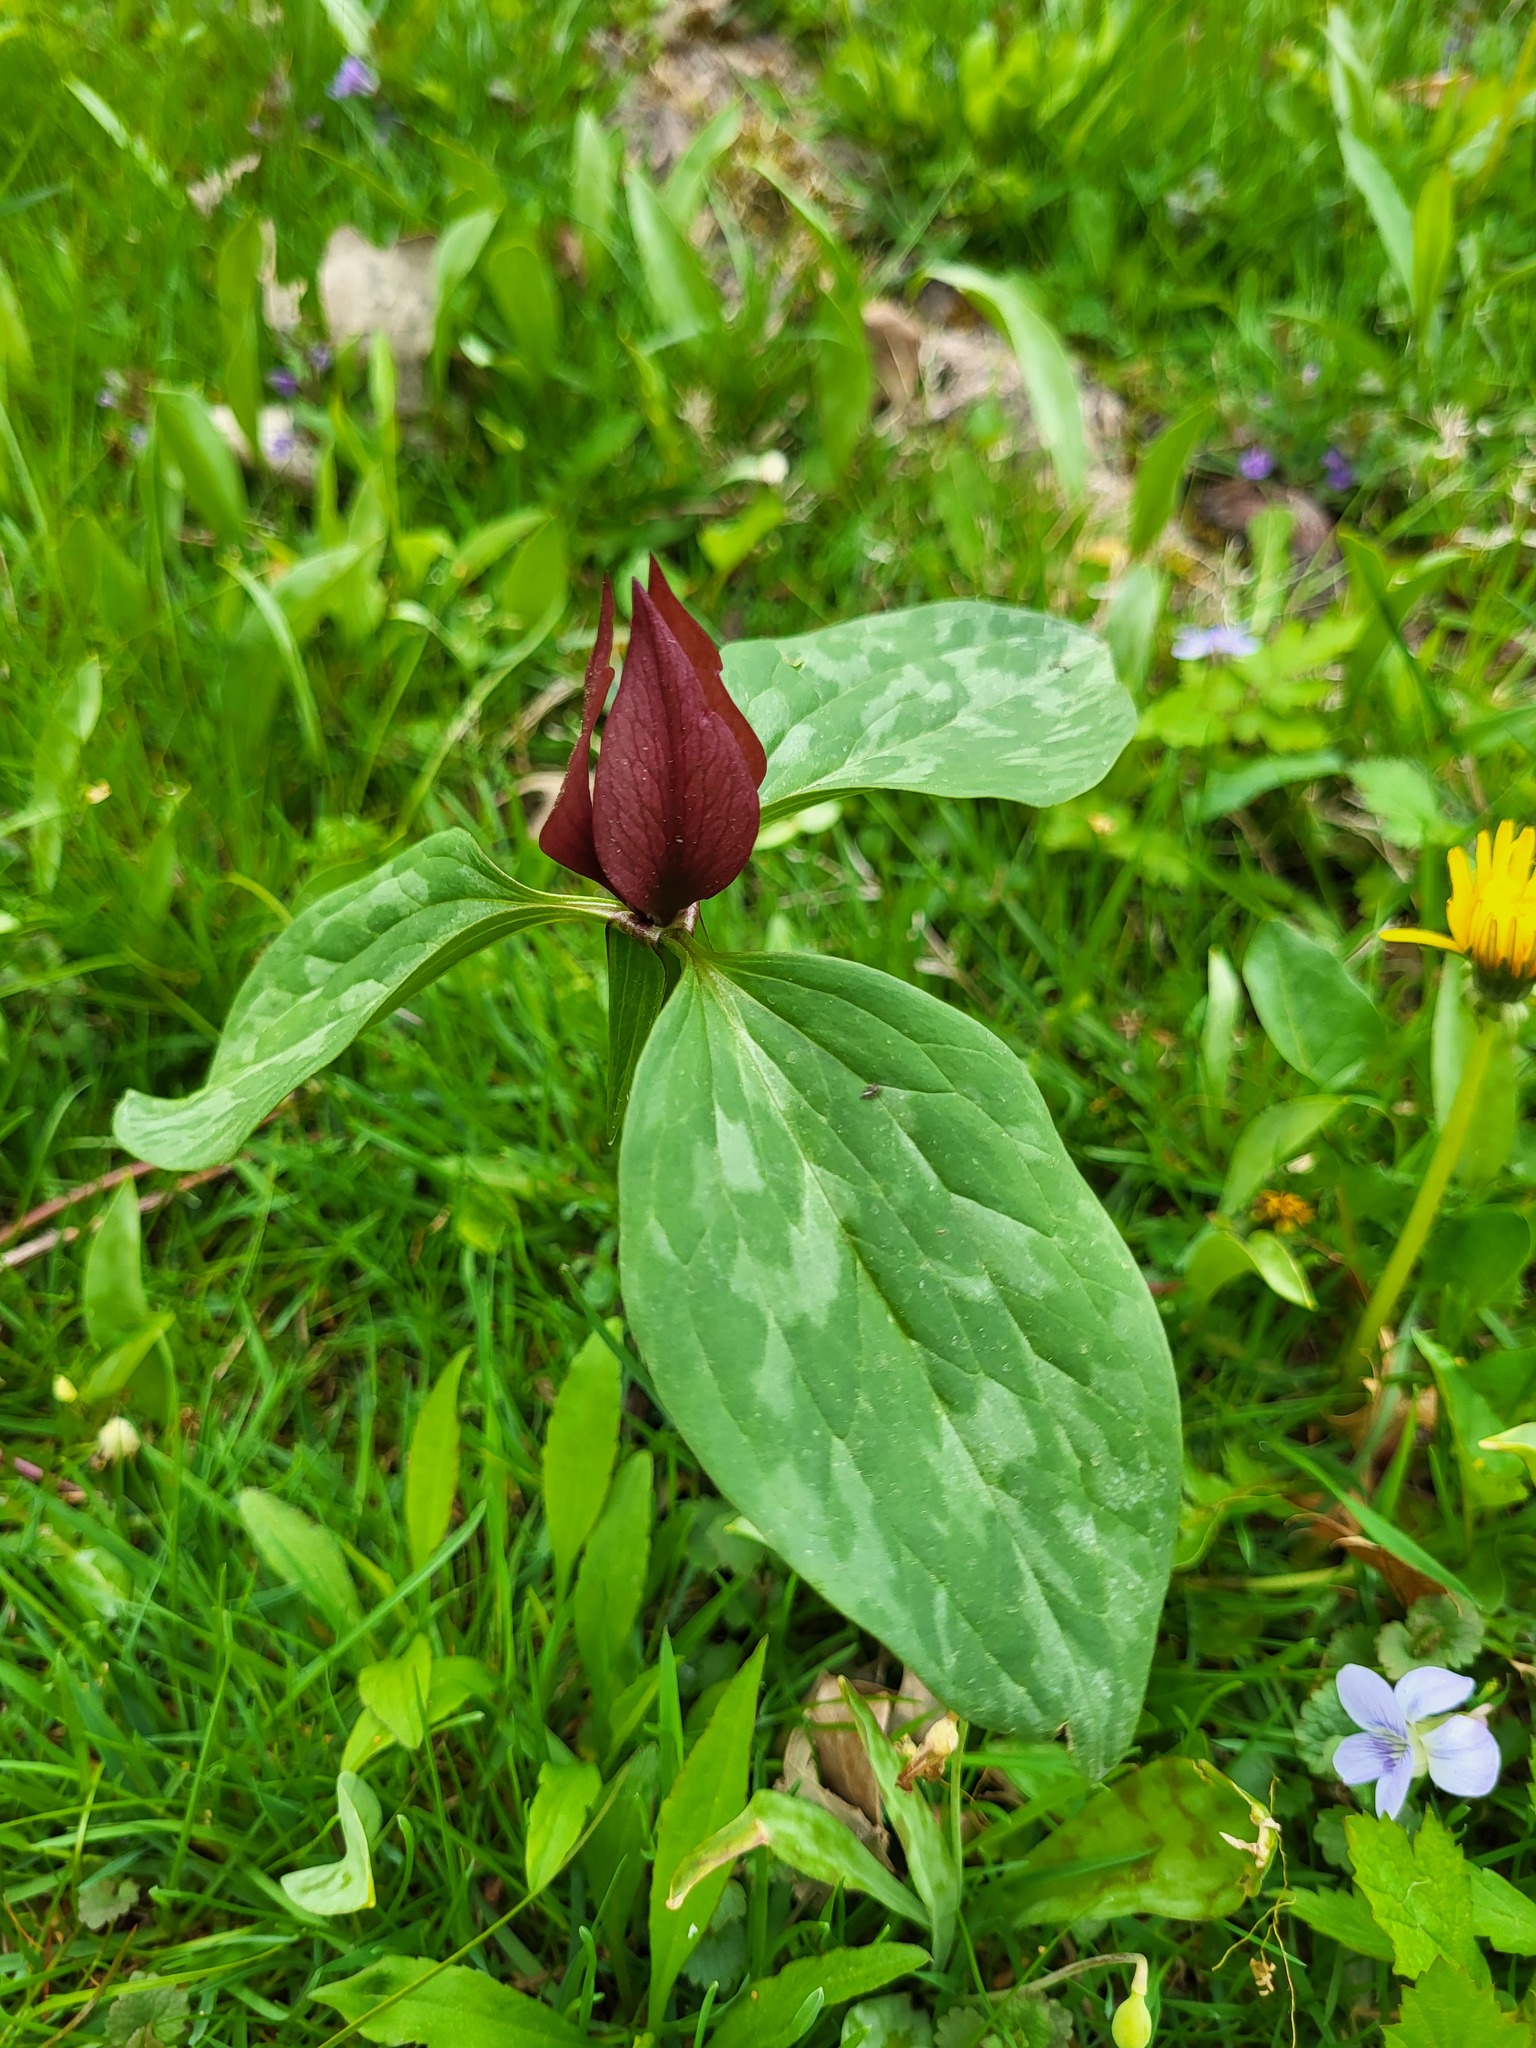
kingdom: Plantae
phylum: Tracheophyta
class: Liliopsida
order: Liliales
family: Melanthiaceae
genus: Trillium
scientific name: Trillium recurvatum
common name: Bloody butcher
